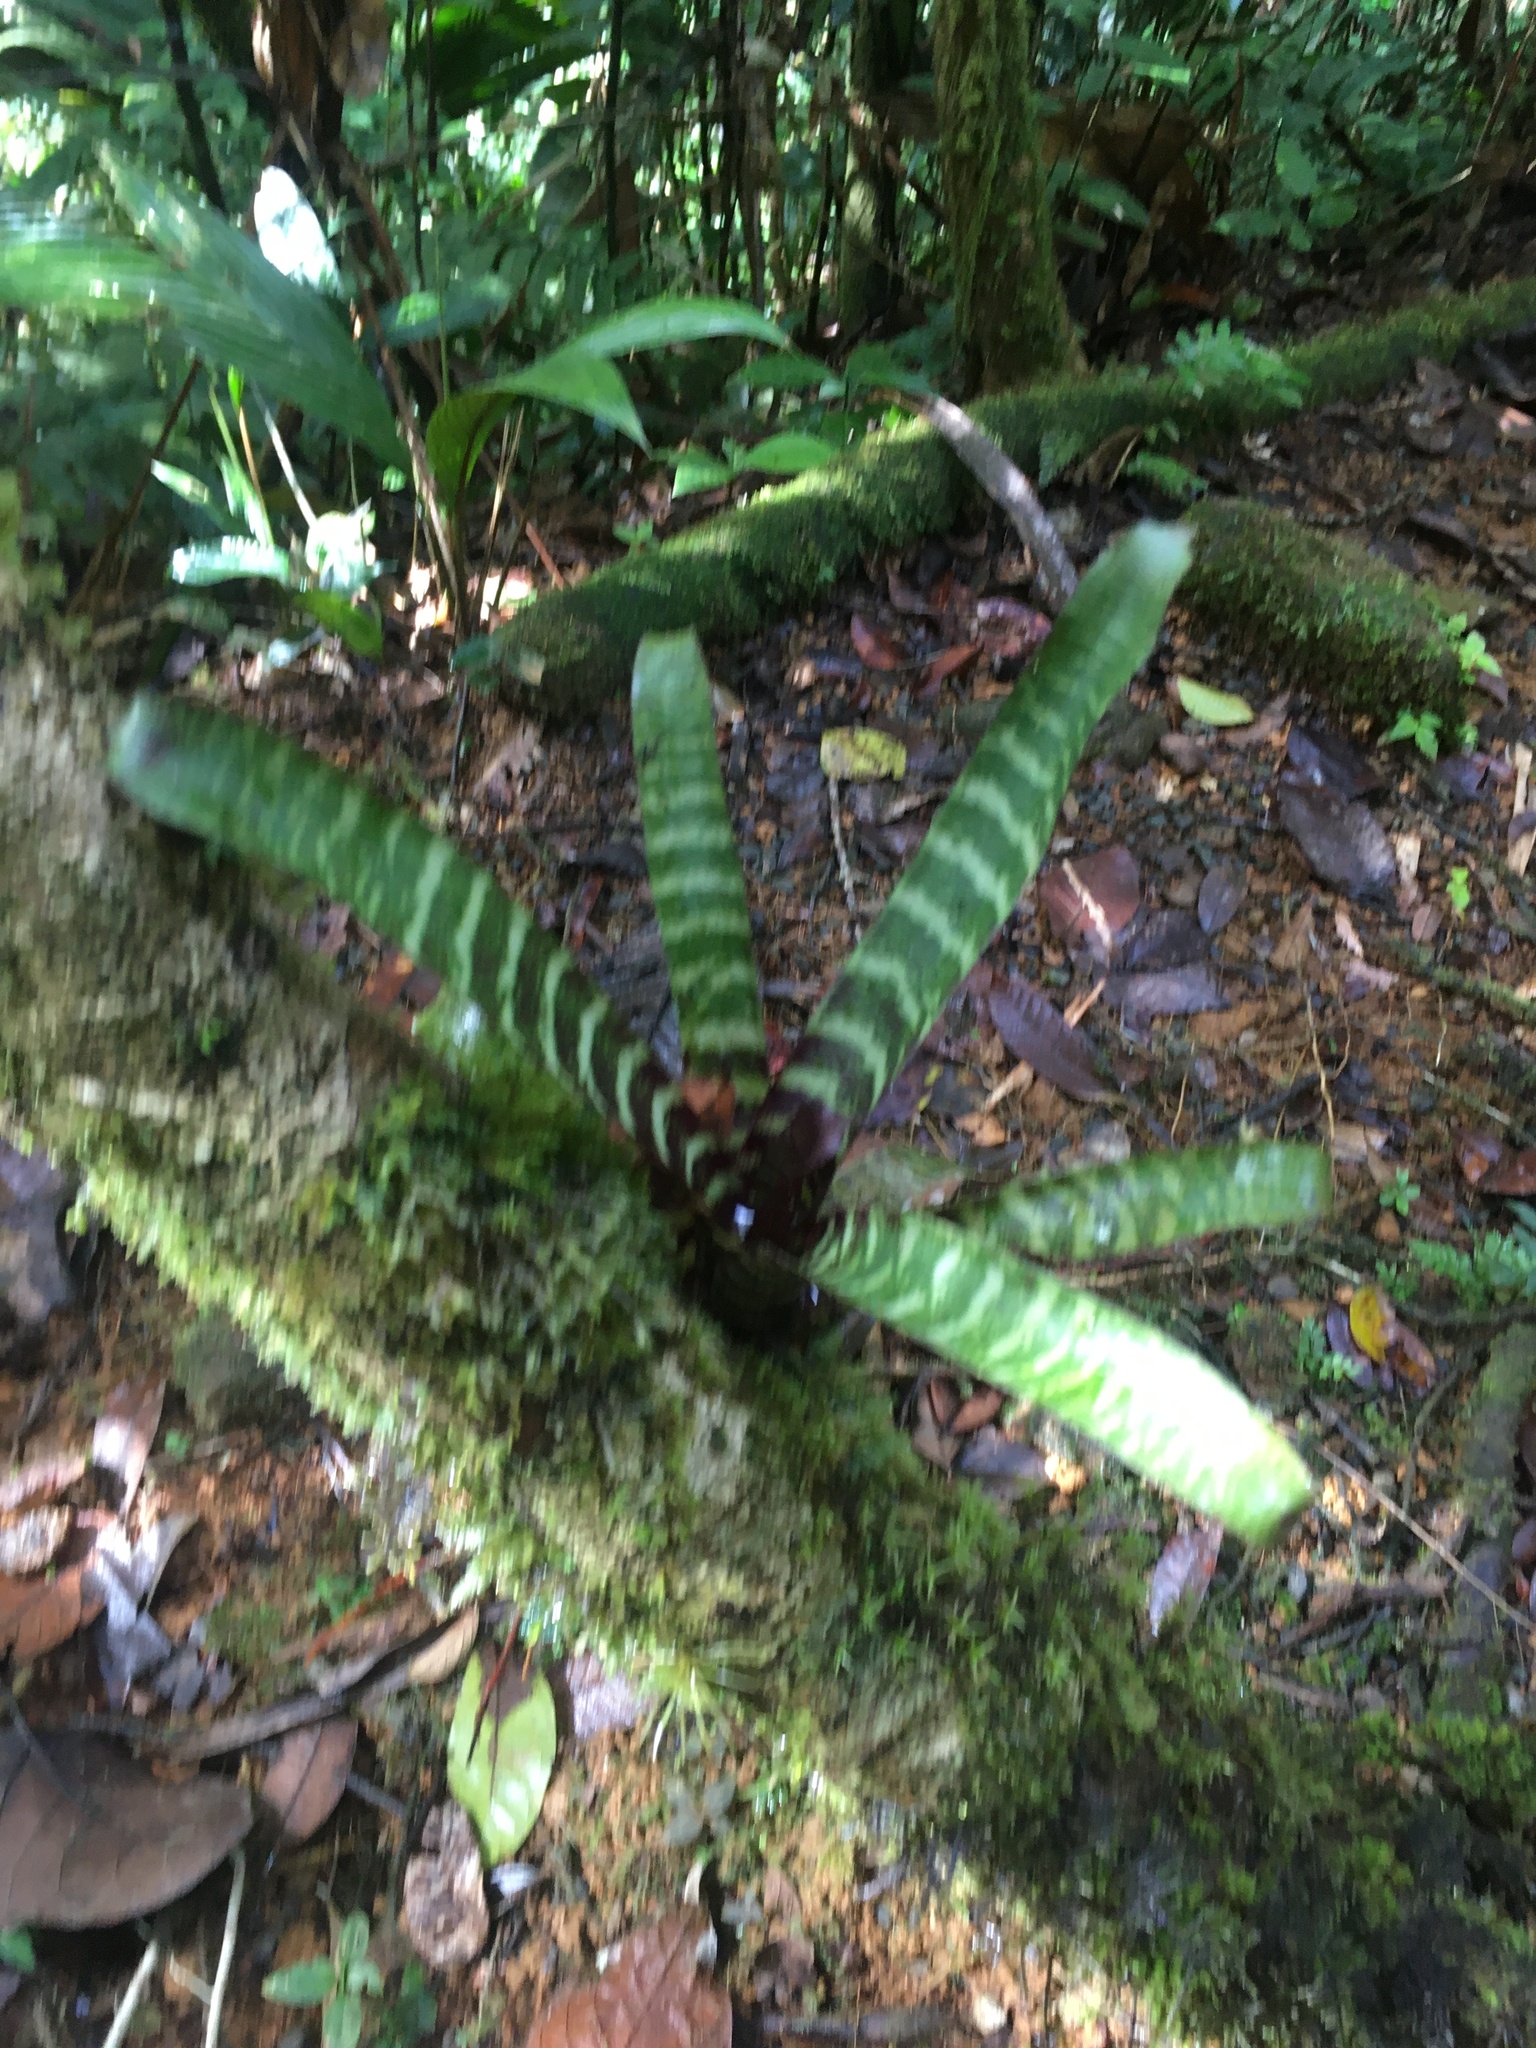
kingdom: Plantae
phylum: Tracheophyta
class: Liliopsida
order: Poales
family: Bromeliaceae
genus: Guzmania
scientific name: Guzmania musaica
